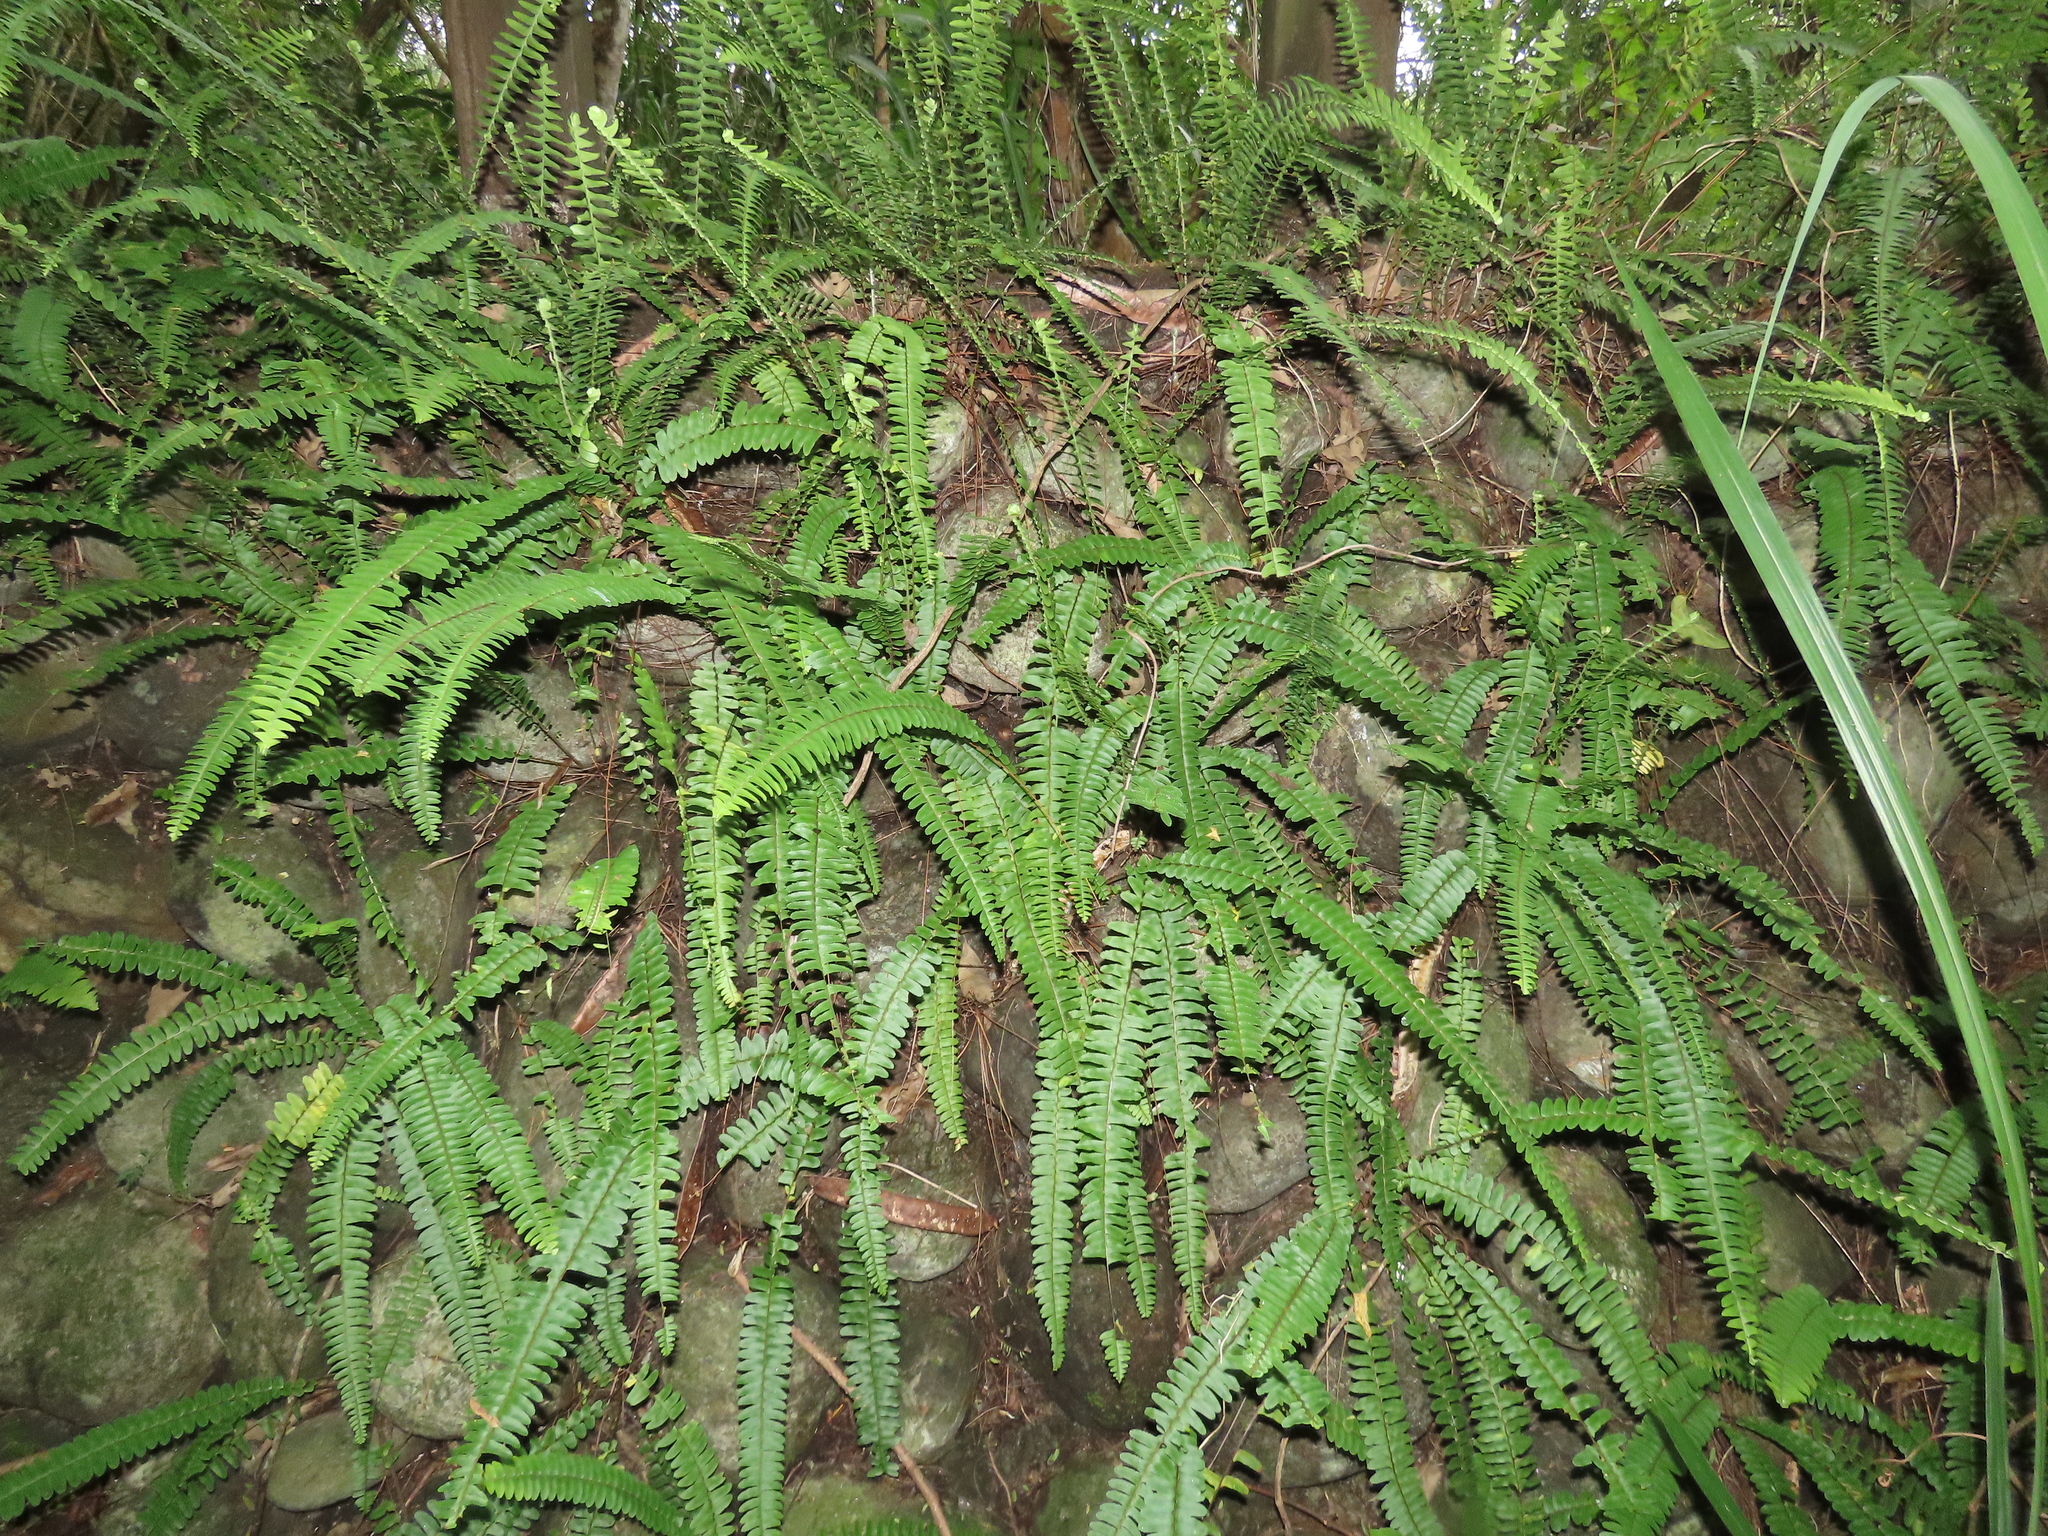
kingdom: Plantae
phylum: Tracheophyta
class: Polypodiopsida
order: Polypodiales
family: Nephrolepidaceae
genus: Nephrolepis
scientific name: Nephrolepis cordifolia
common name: Narrow swordfern
